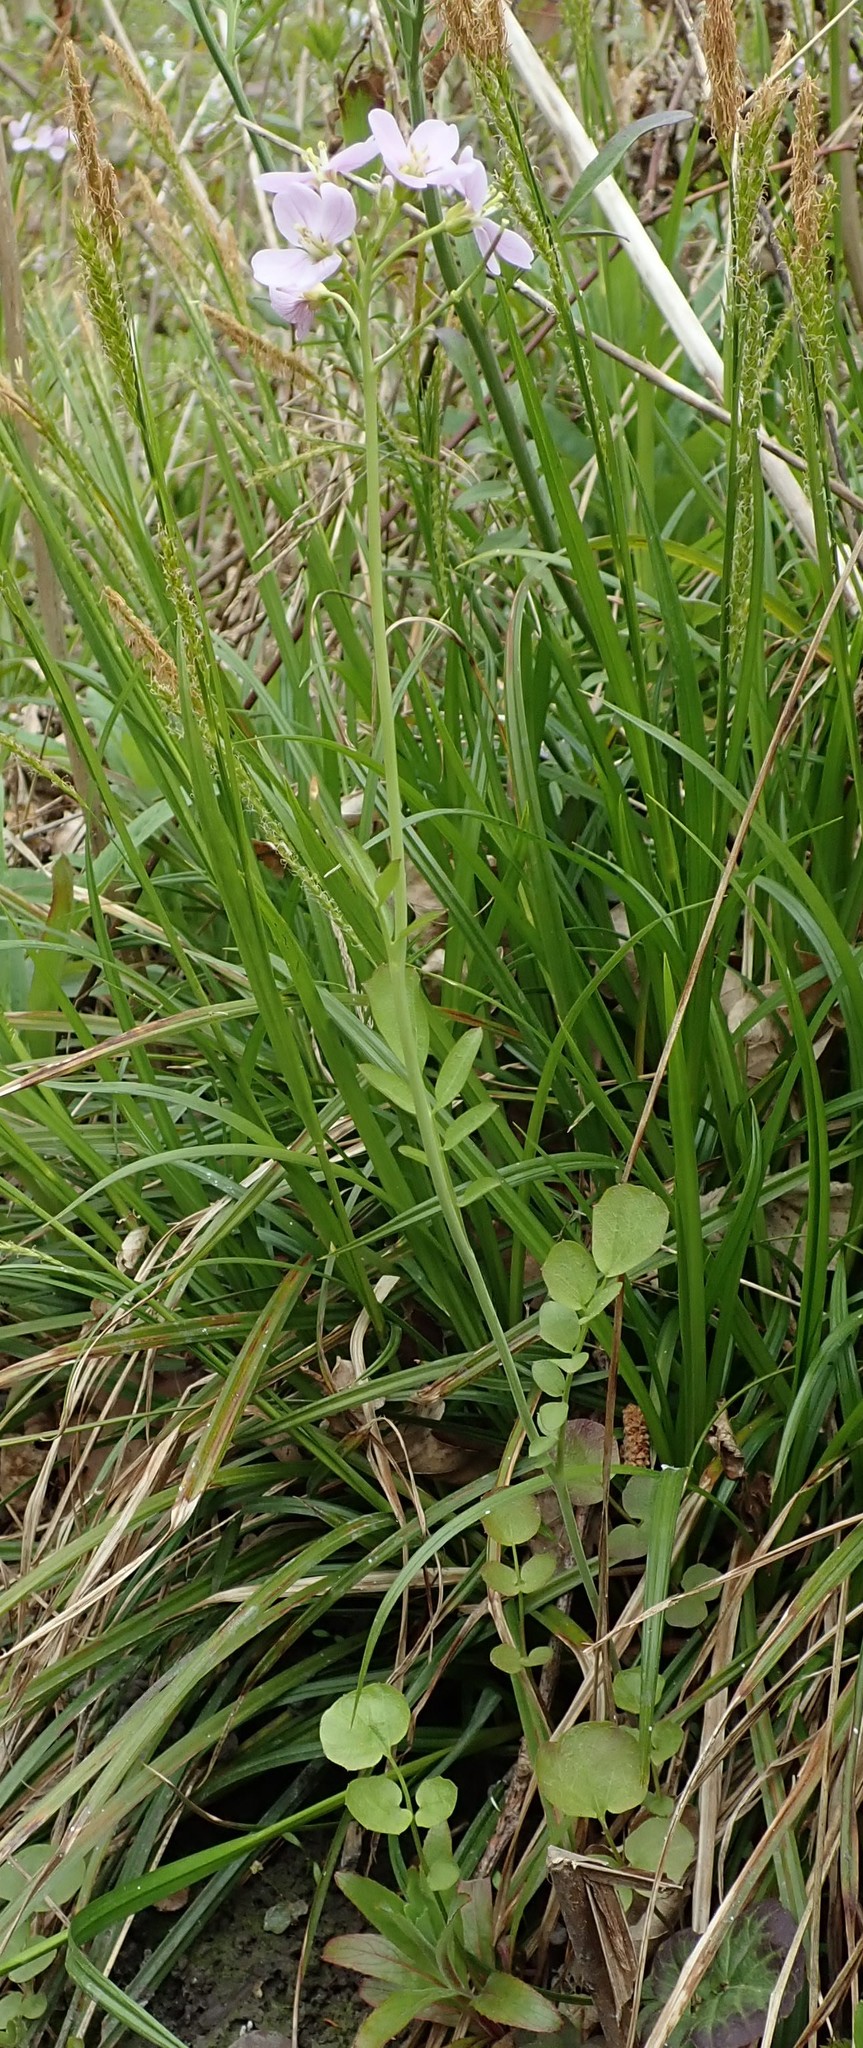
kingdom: Plantae
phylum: Tracheophyta
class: Magnoliopsida
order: Brassicales
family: Brassicaceae
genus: Cardamine
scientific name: Cardamine pratensis
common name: Cuckoo flower
